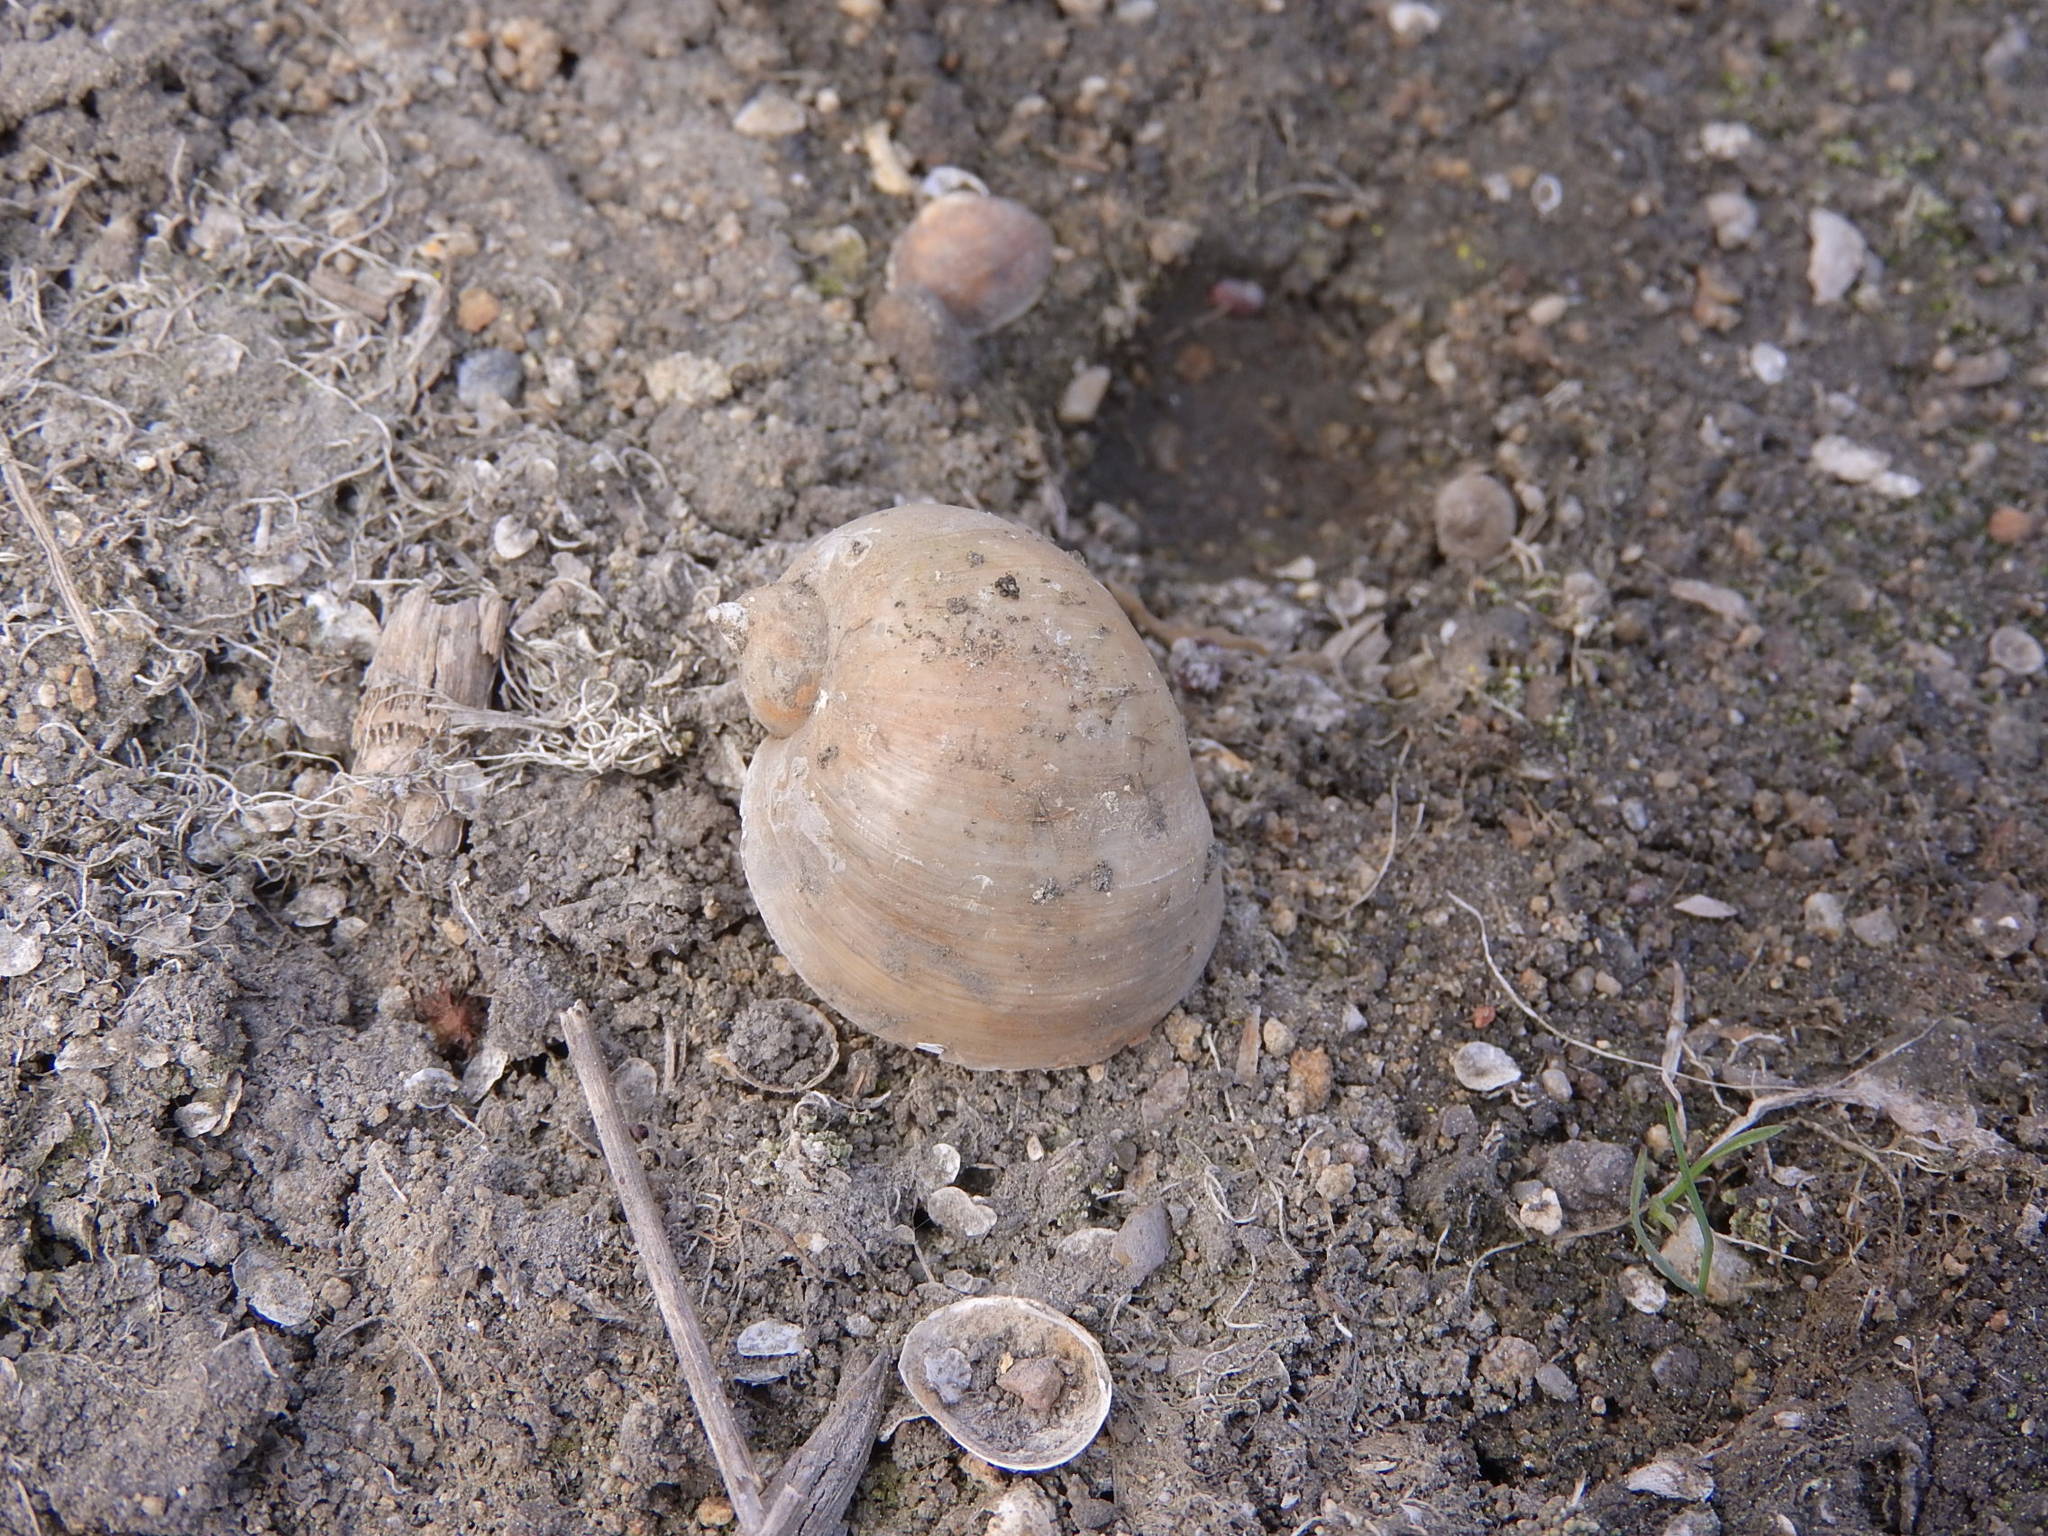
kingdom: Animalia
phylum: Mollusca
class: Gastropoda
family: Physidae
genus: Physella
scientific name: Physella acuta
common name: European physa
